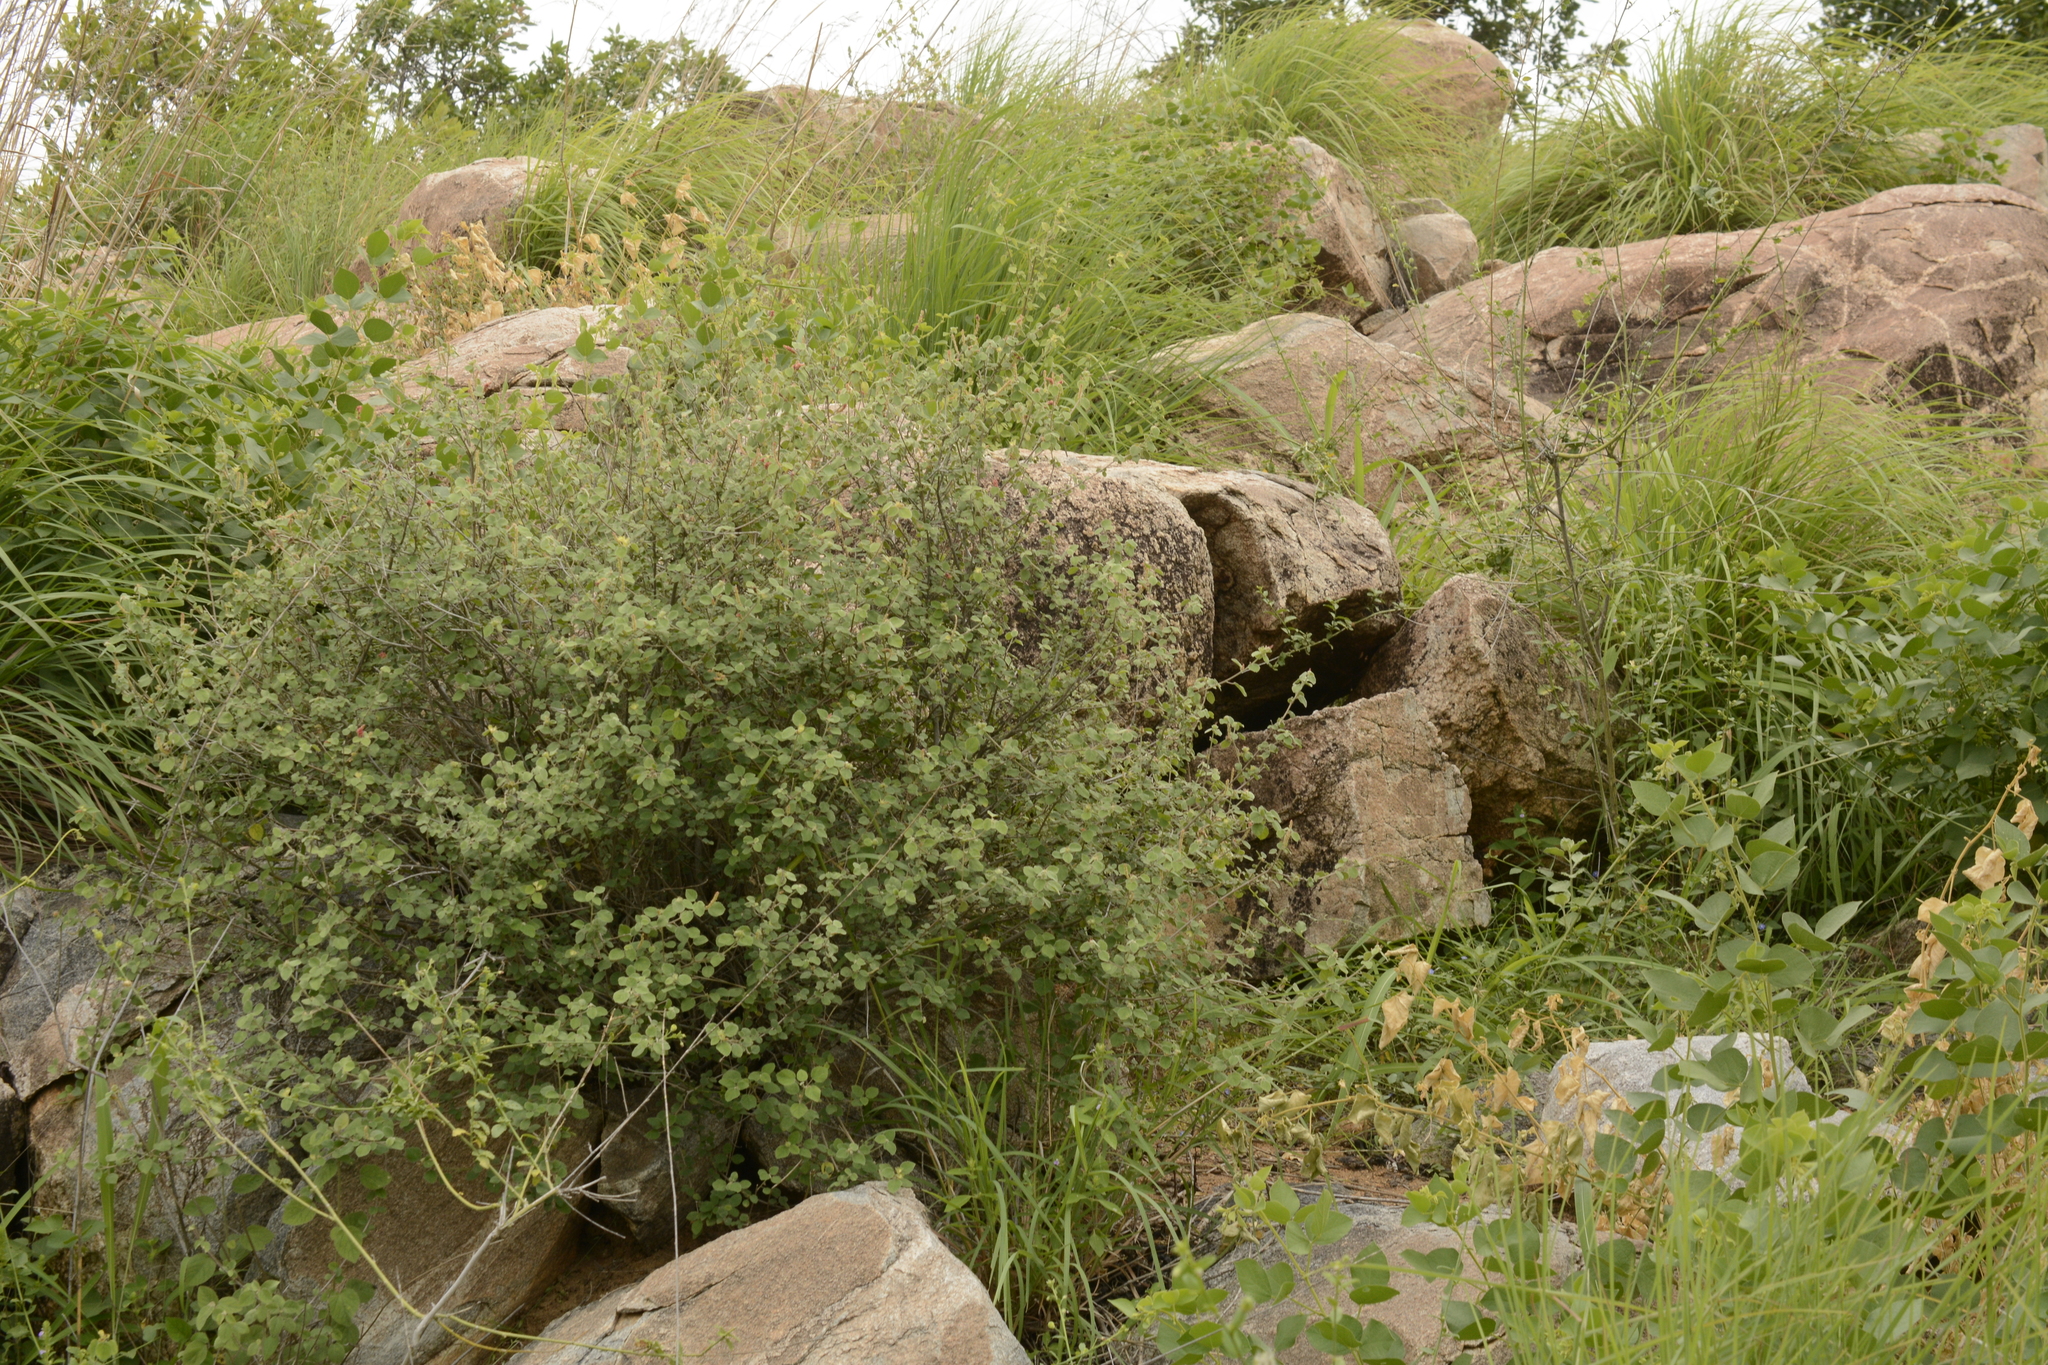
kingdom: Plantae
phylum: Tracheophyta
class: Magnoliopsida
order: Malpighiales
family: Euphorbiaceae
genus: Acalypha
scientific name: Acalypha capitata
